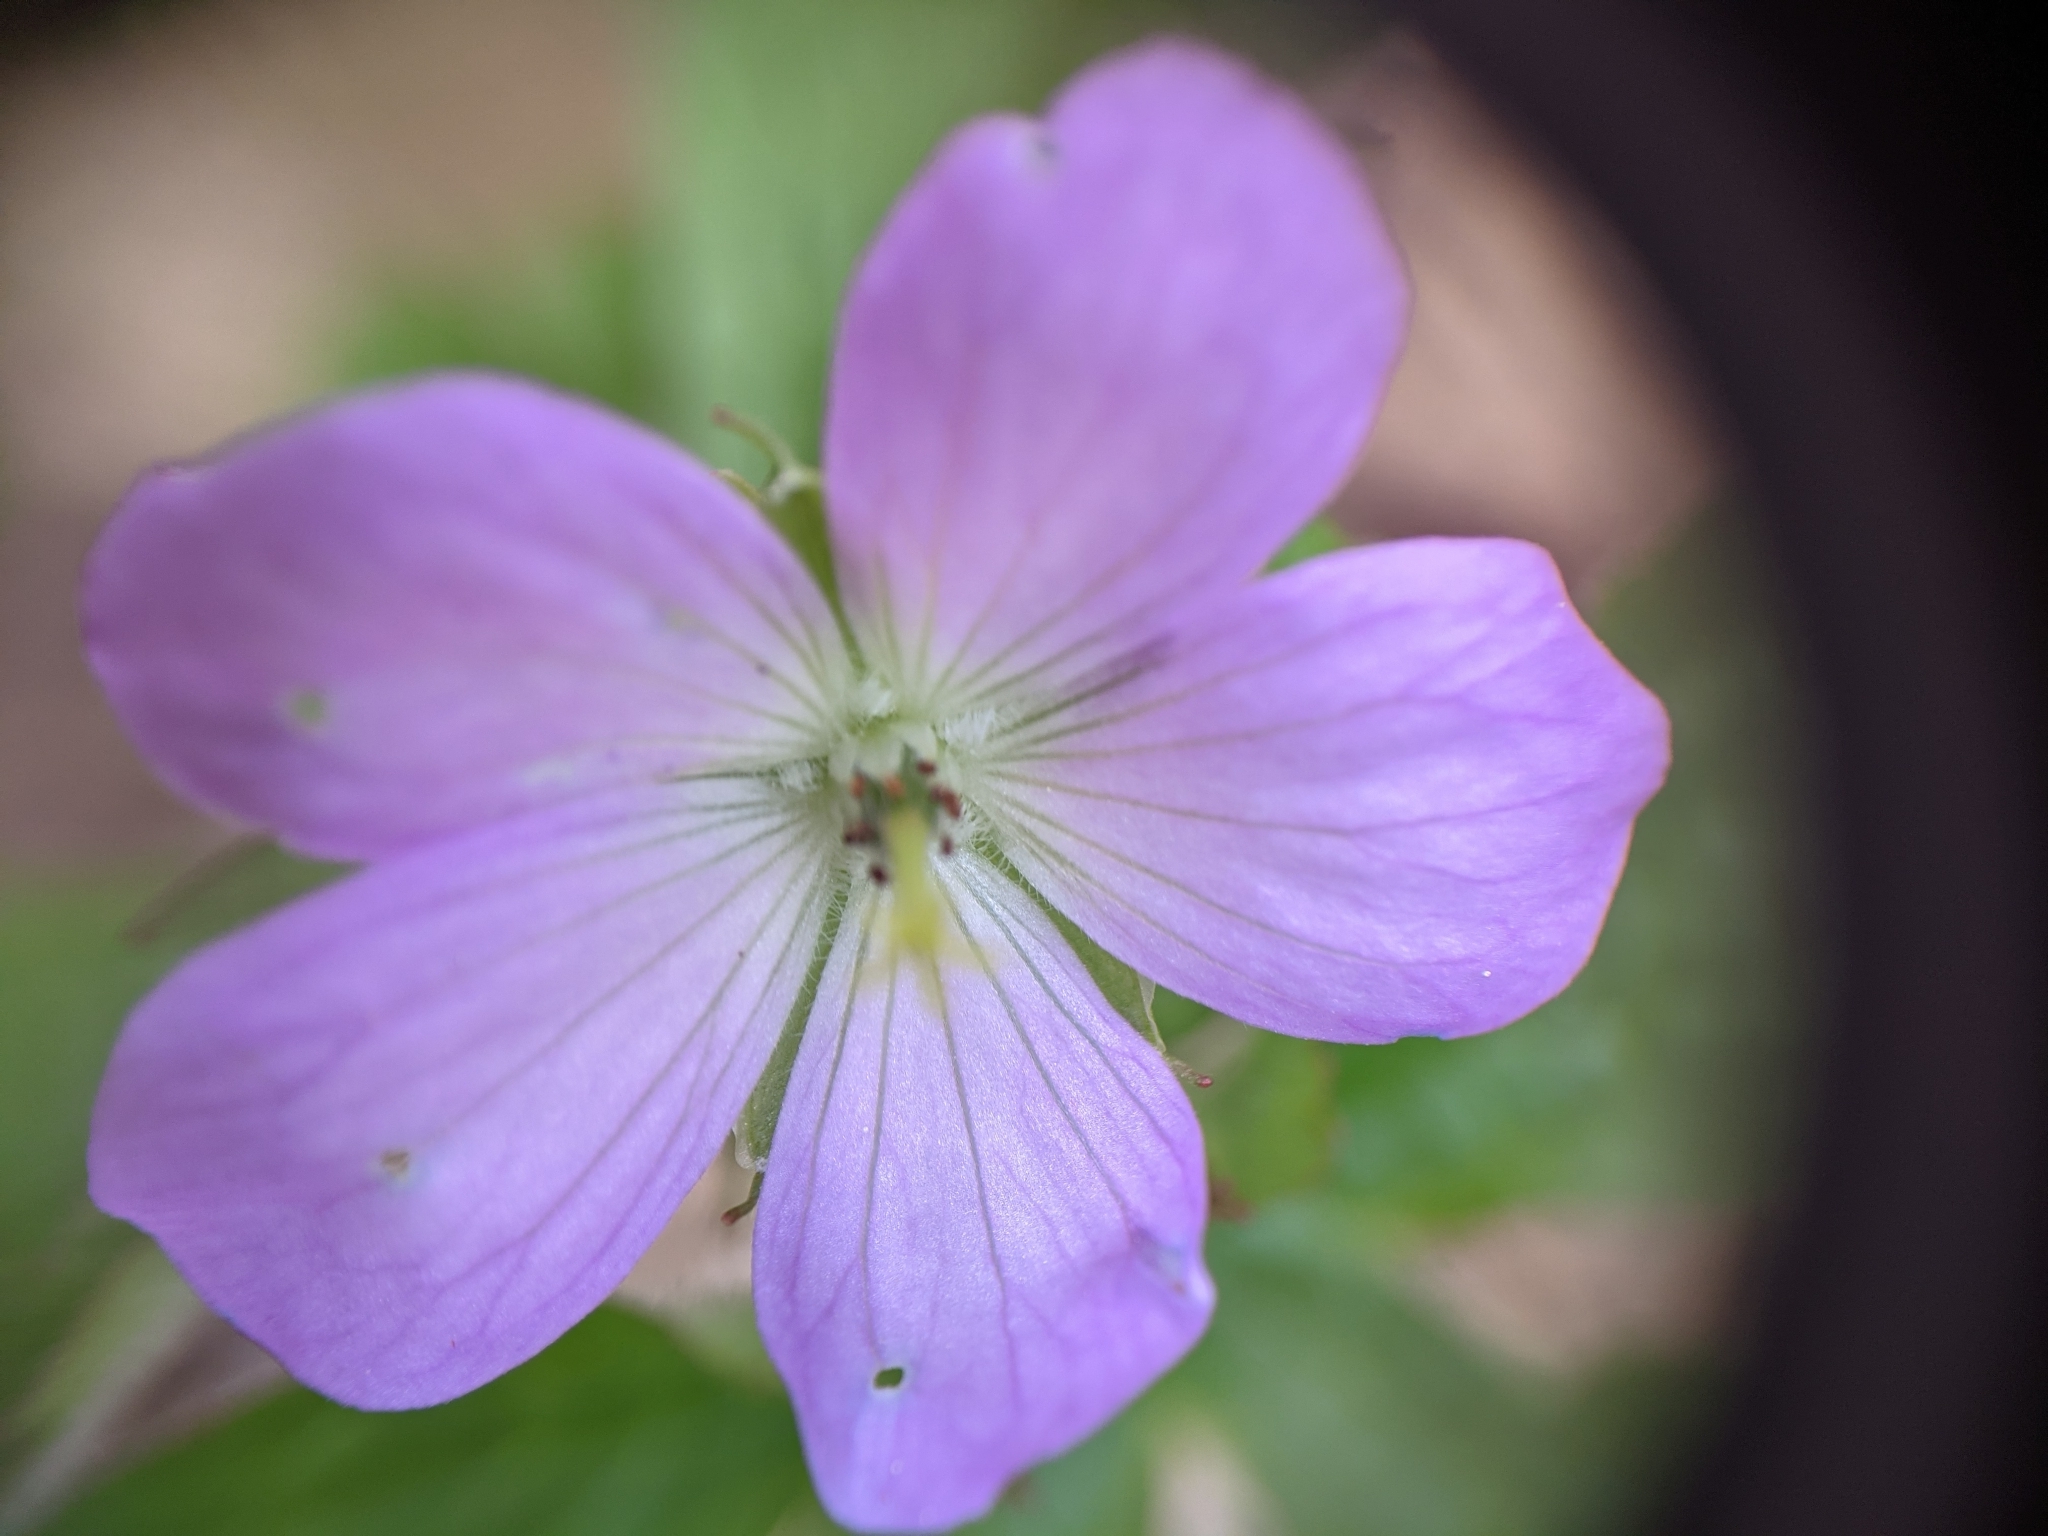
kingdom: Plantae
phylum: Tracheophyta
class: Magnoliopsida
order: Geraniales
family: Geraniaceae
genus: Geranium
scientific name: Geranium maculatum
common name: Spotted geranium
